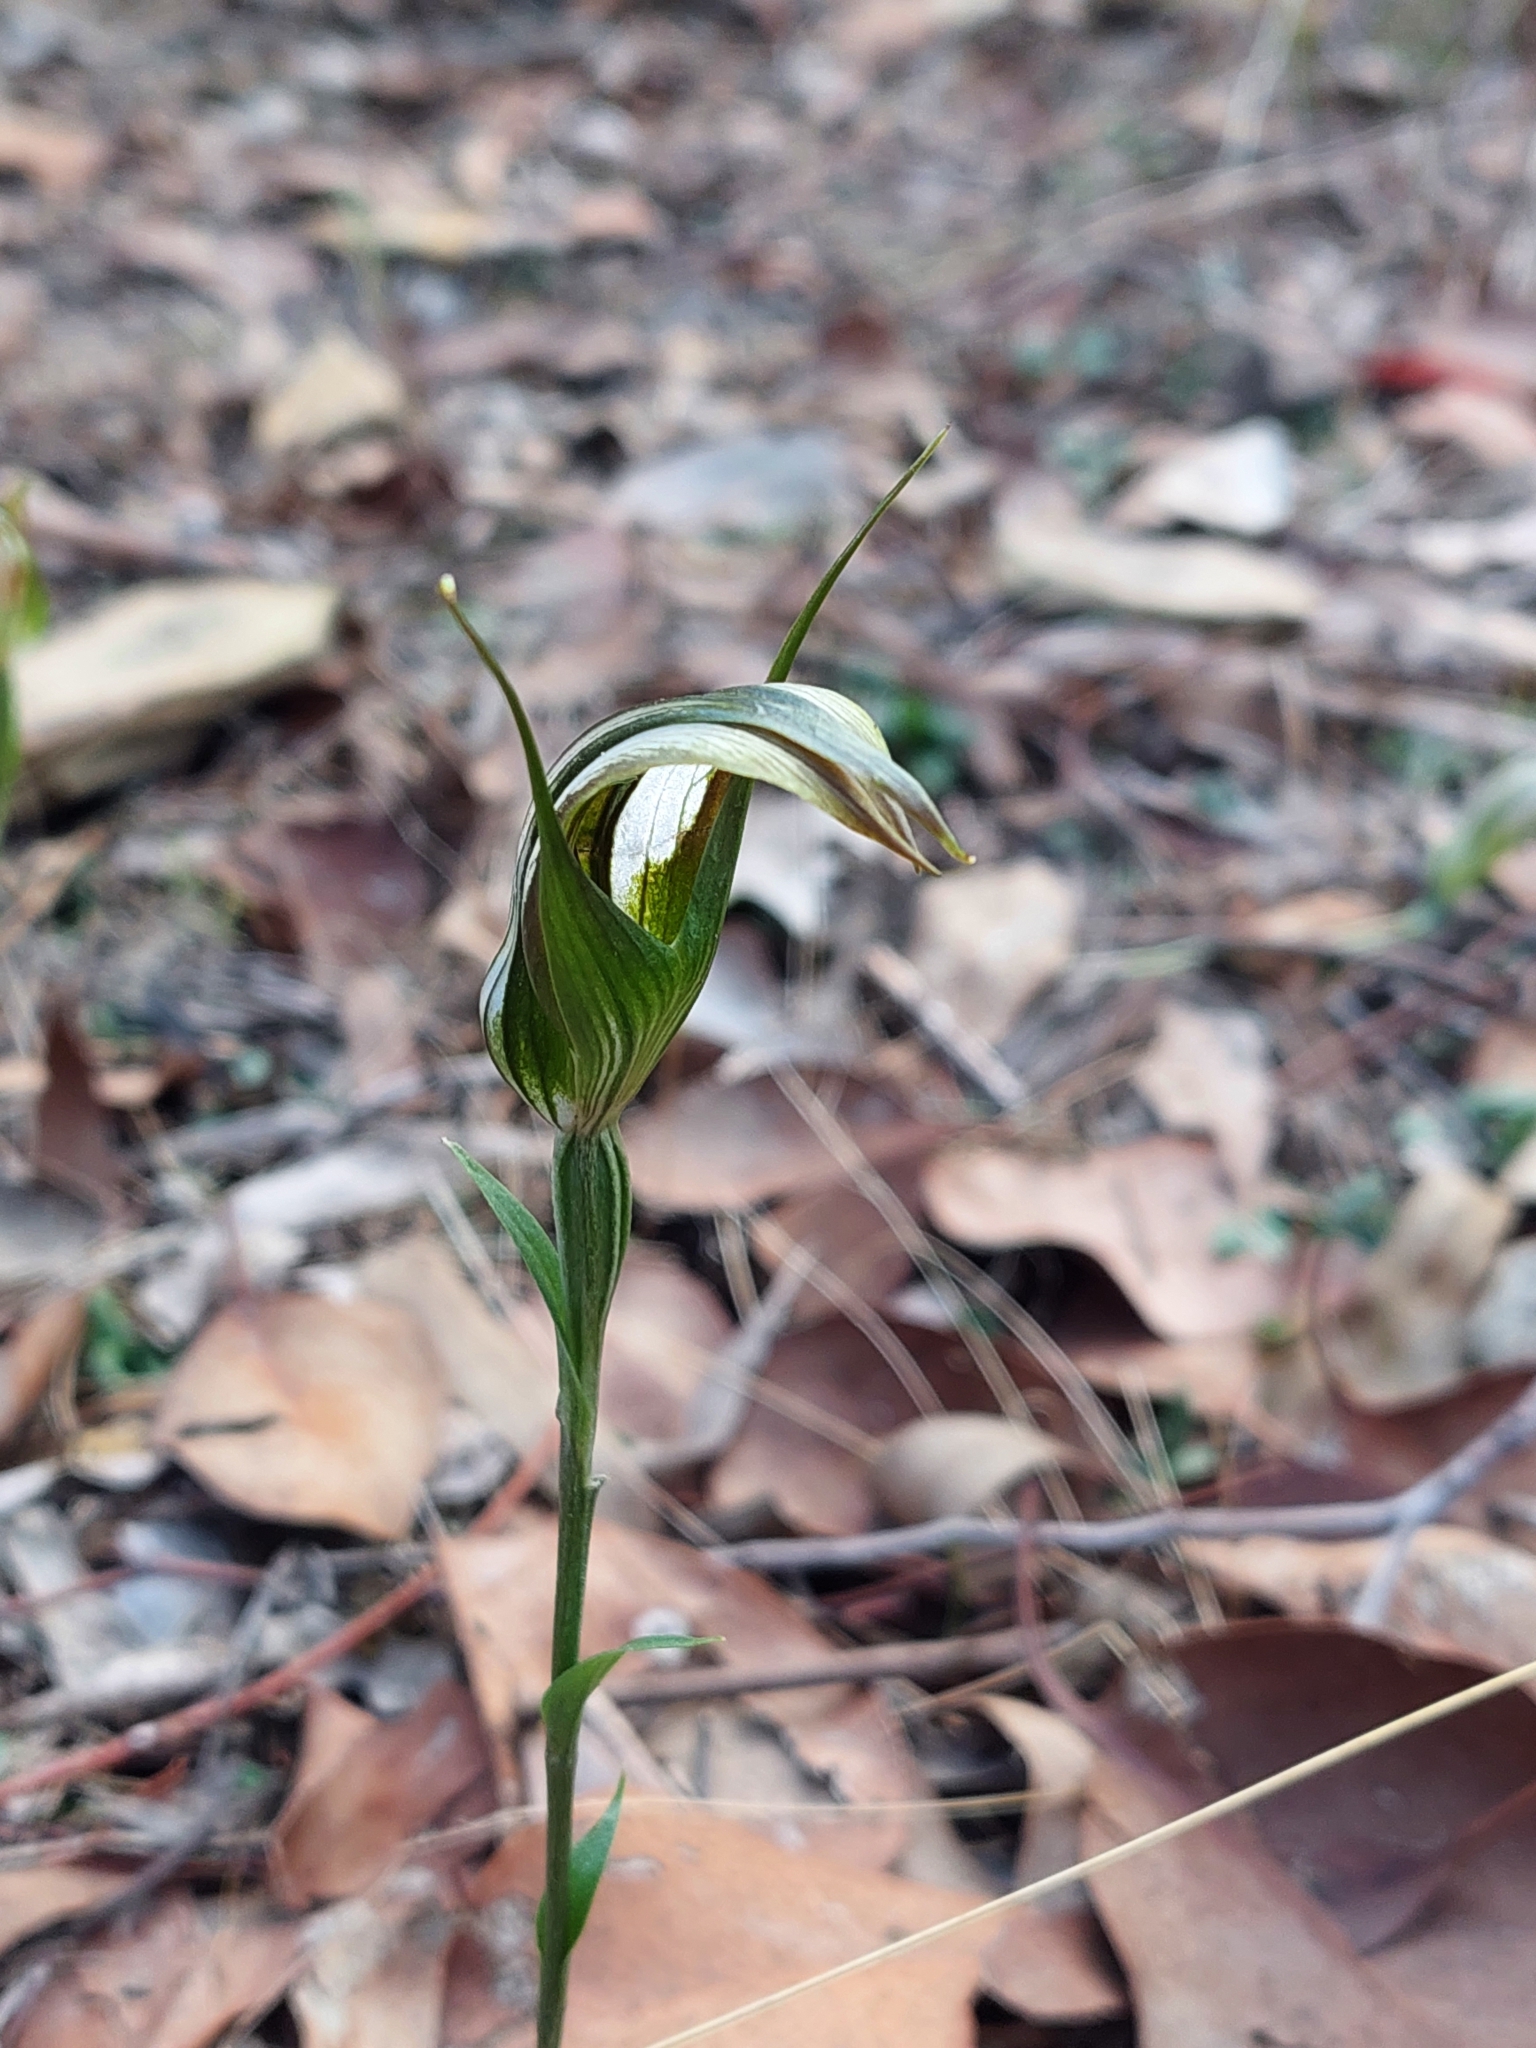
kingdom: Plantae
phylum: Tracheophyta
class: Liliopsida
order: Asparagales
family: Orchidaceae
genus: Pterostylis
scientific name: Pterostylis ampliata
